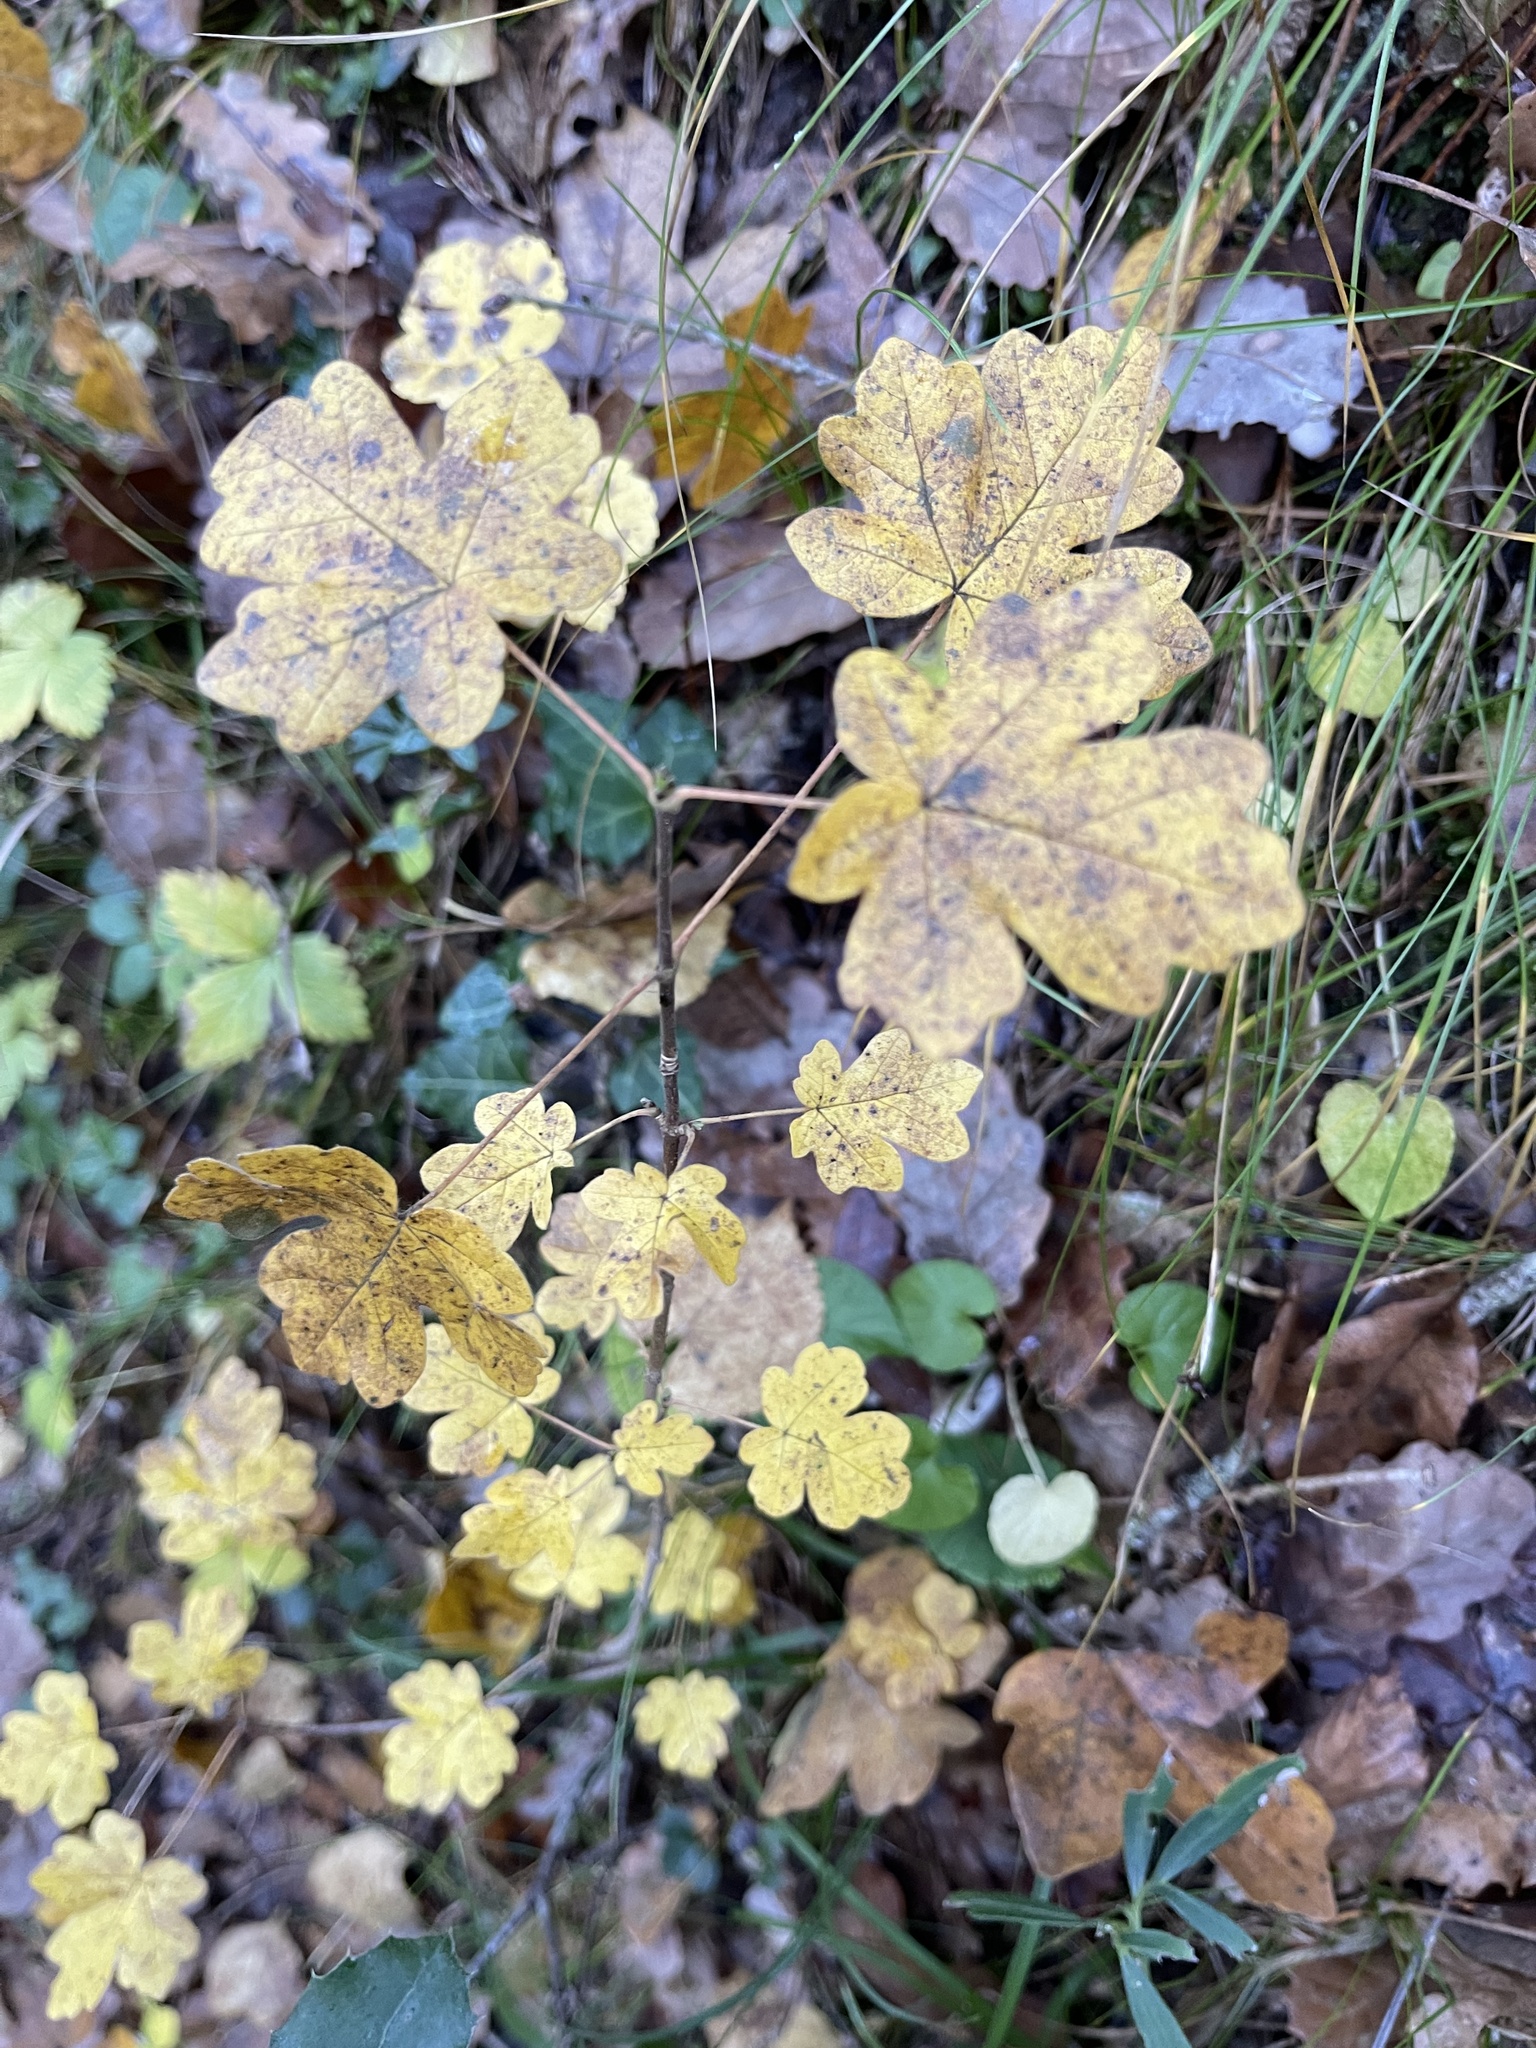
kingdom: Plantae
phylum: Tracheophyta
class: Magnoliopsida
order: Sapindales
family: Sapindaceae
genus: Acer
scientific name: Acer campestre
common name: Field maple
